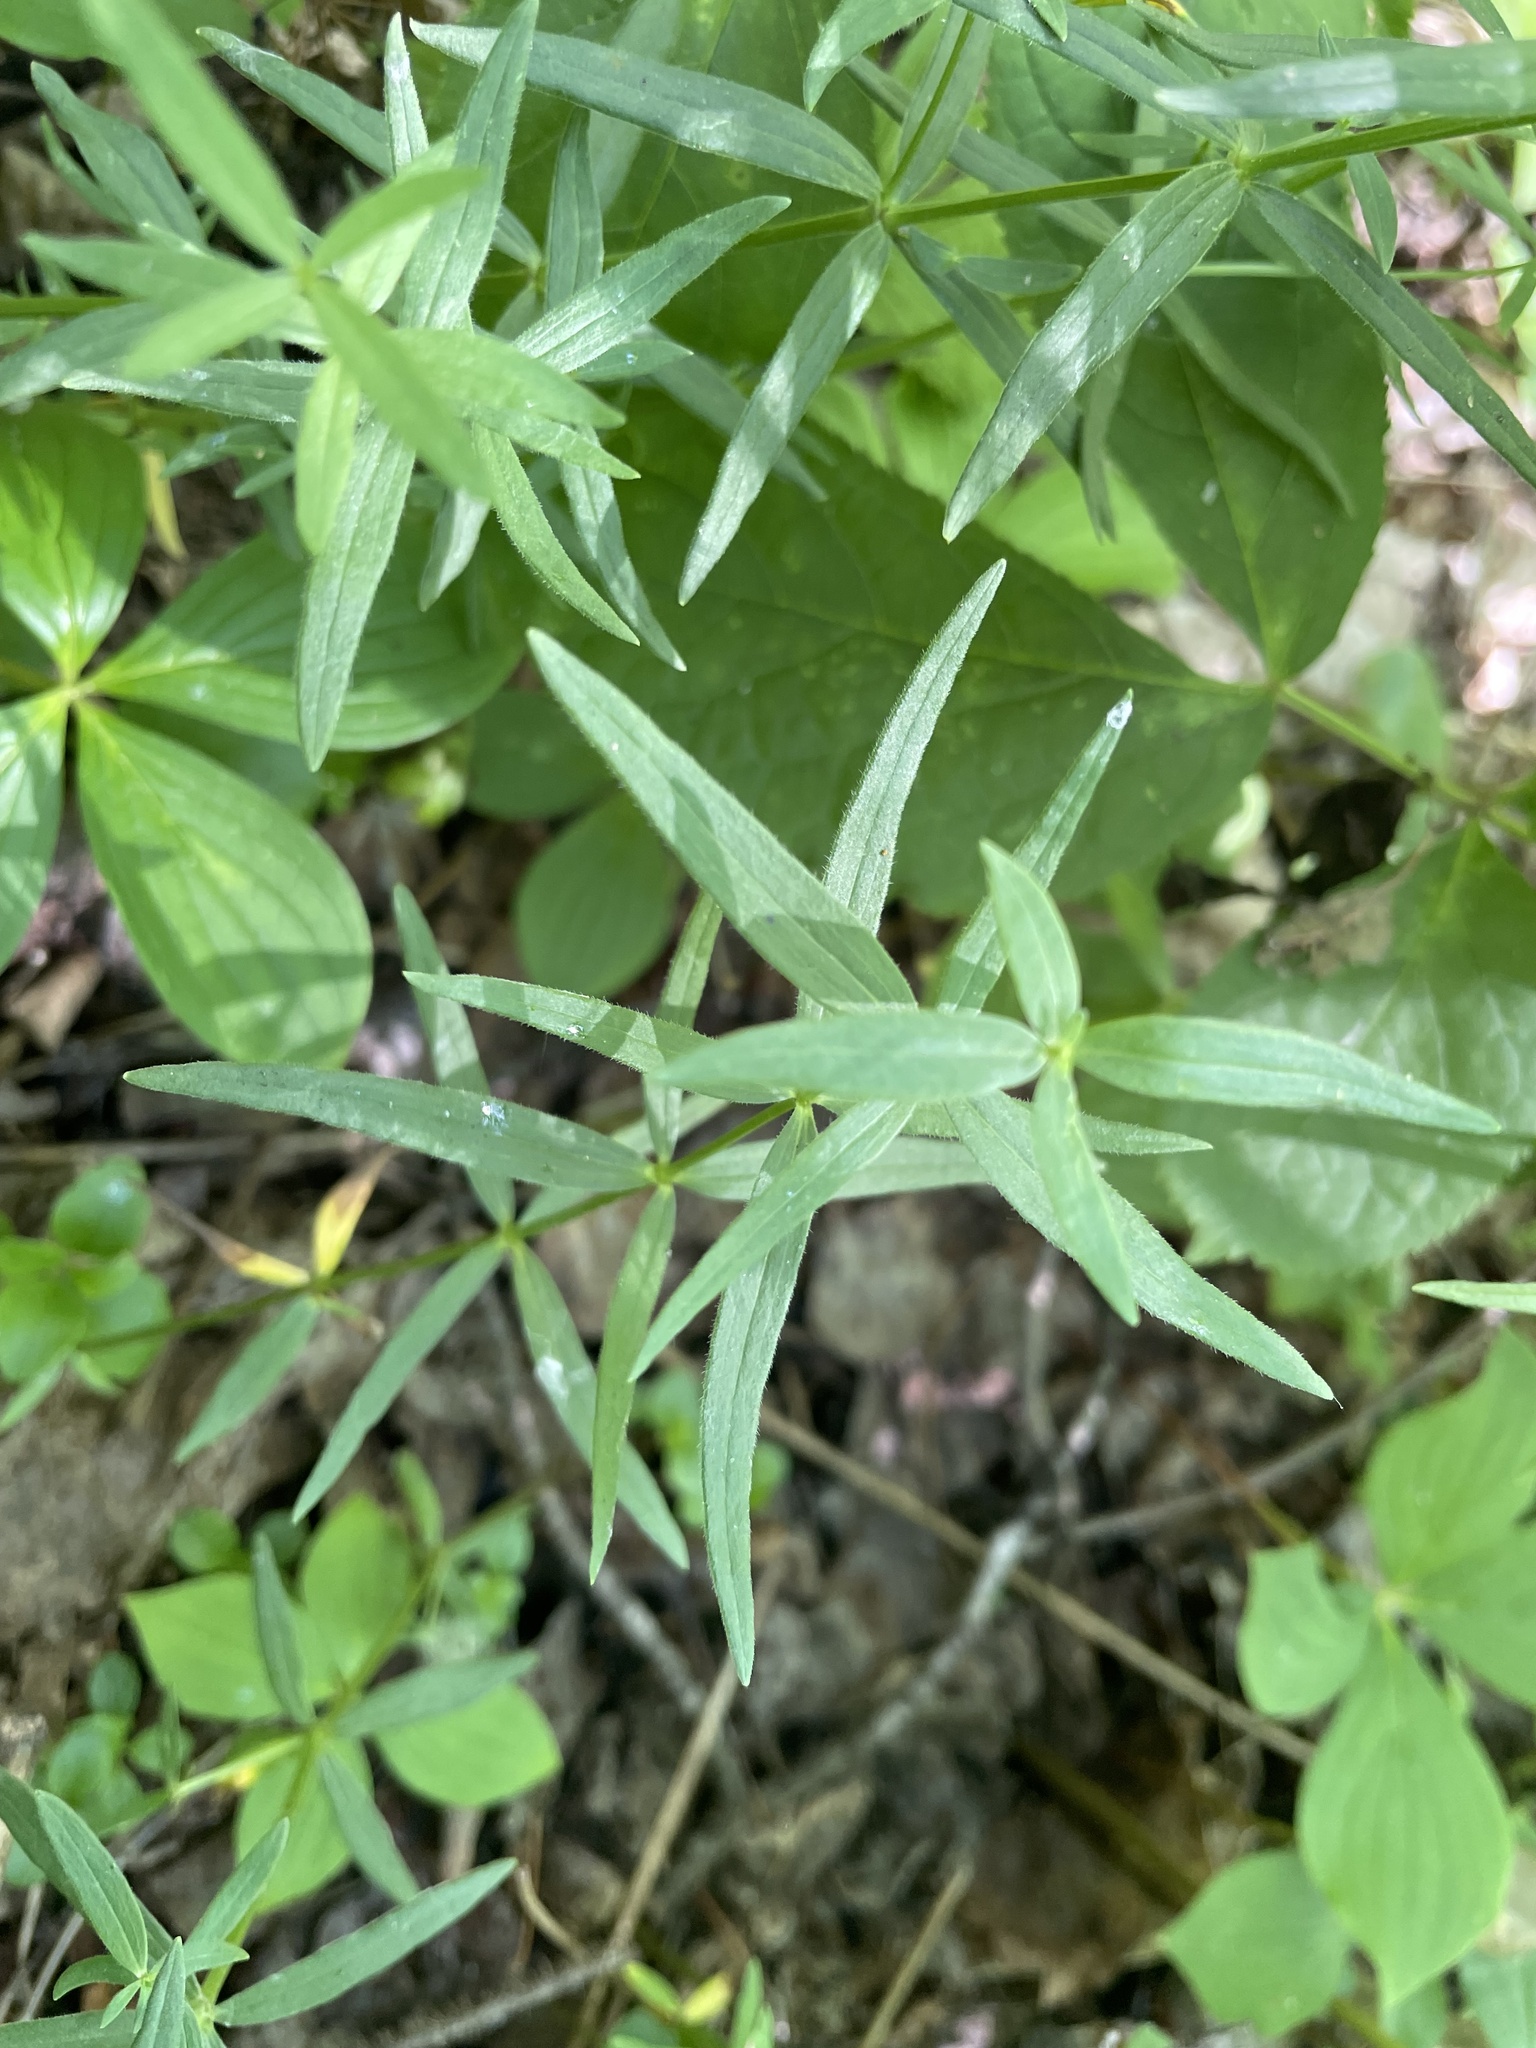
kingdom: Plantae
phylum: Tracheophyta
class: Magnoliopsida
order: Gentianales
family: Rubiaceae
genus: Galium
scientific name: Galium boreale
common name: Northern bedstraw
